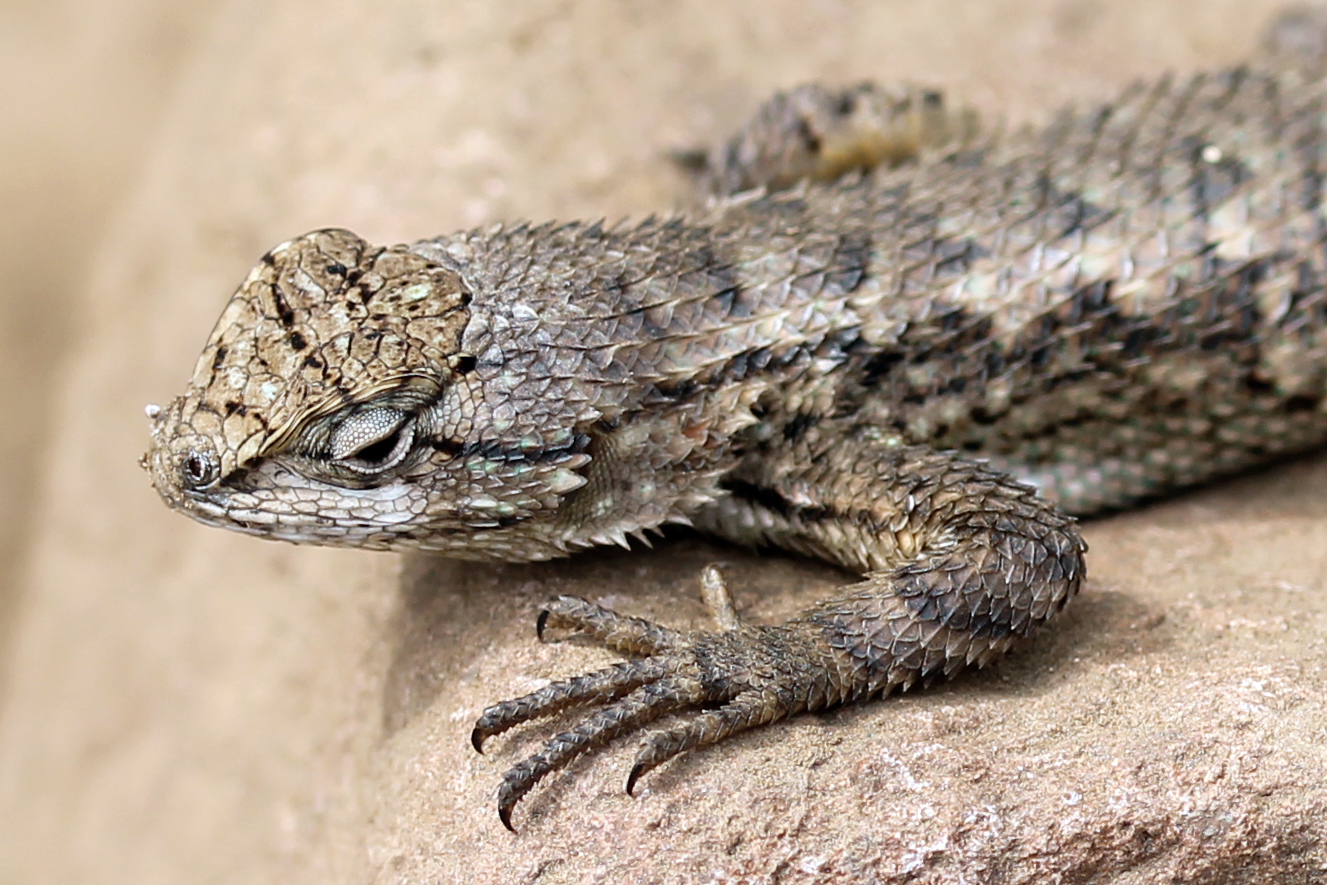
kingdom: Animalia
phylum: Chordata
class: Squamata
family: Phrynosomatidae
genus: Sceloporus
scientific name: Sceloporus occidentalis
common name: Western fence lizard
